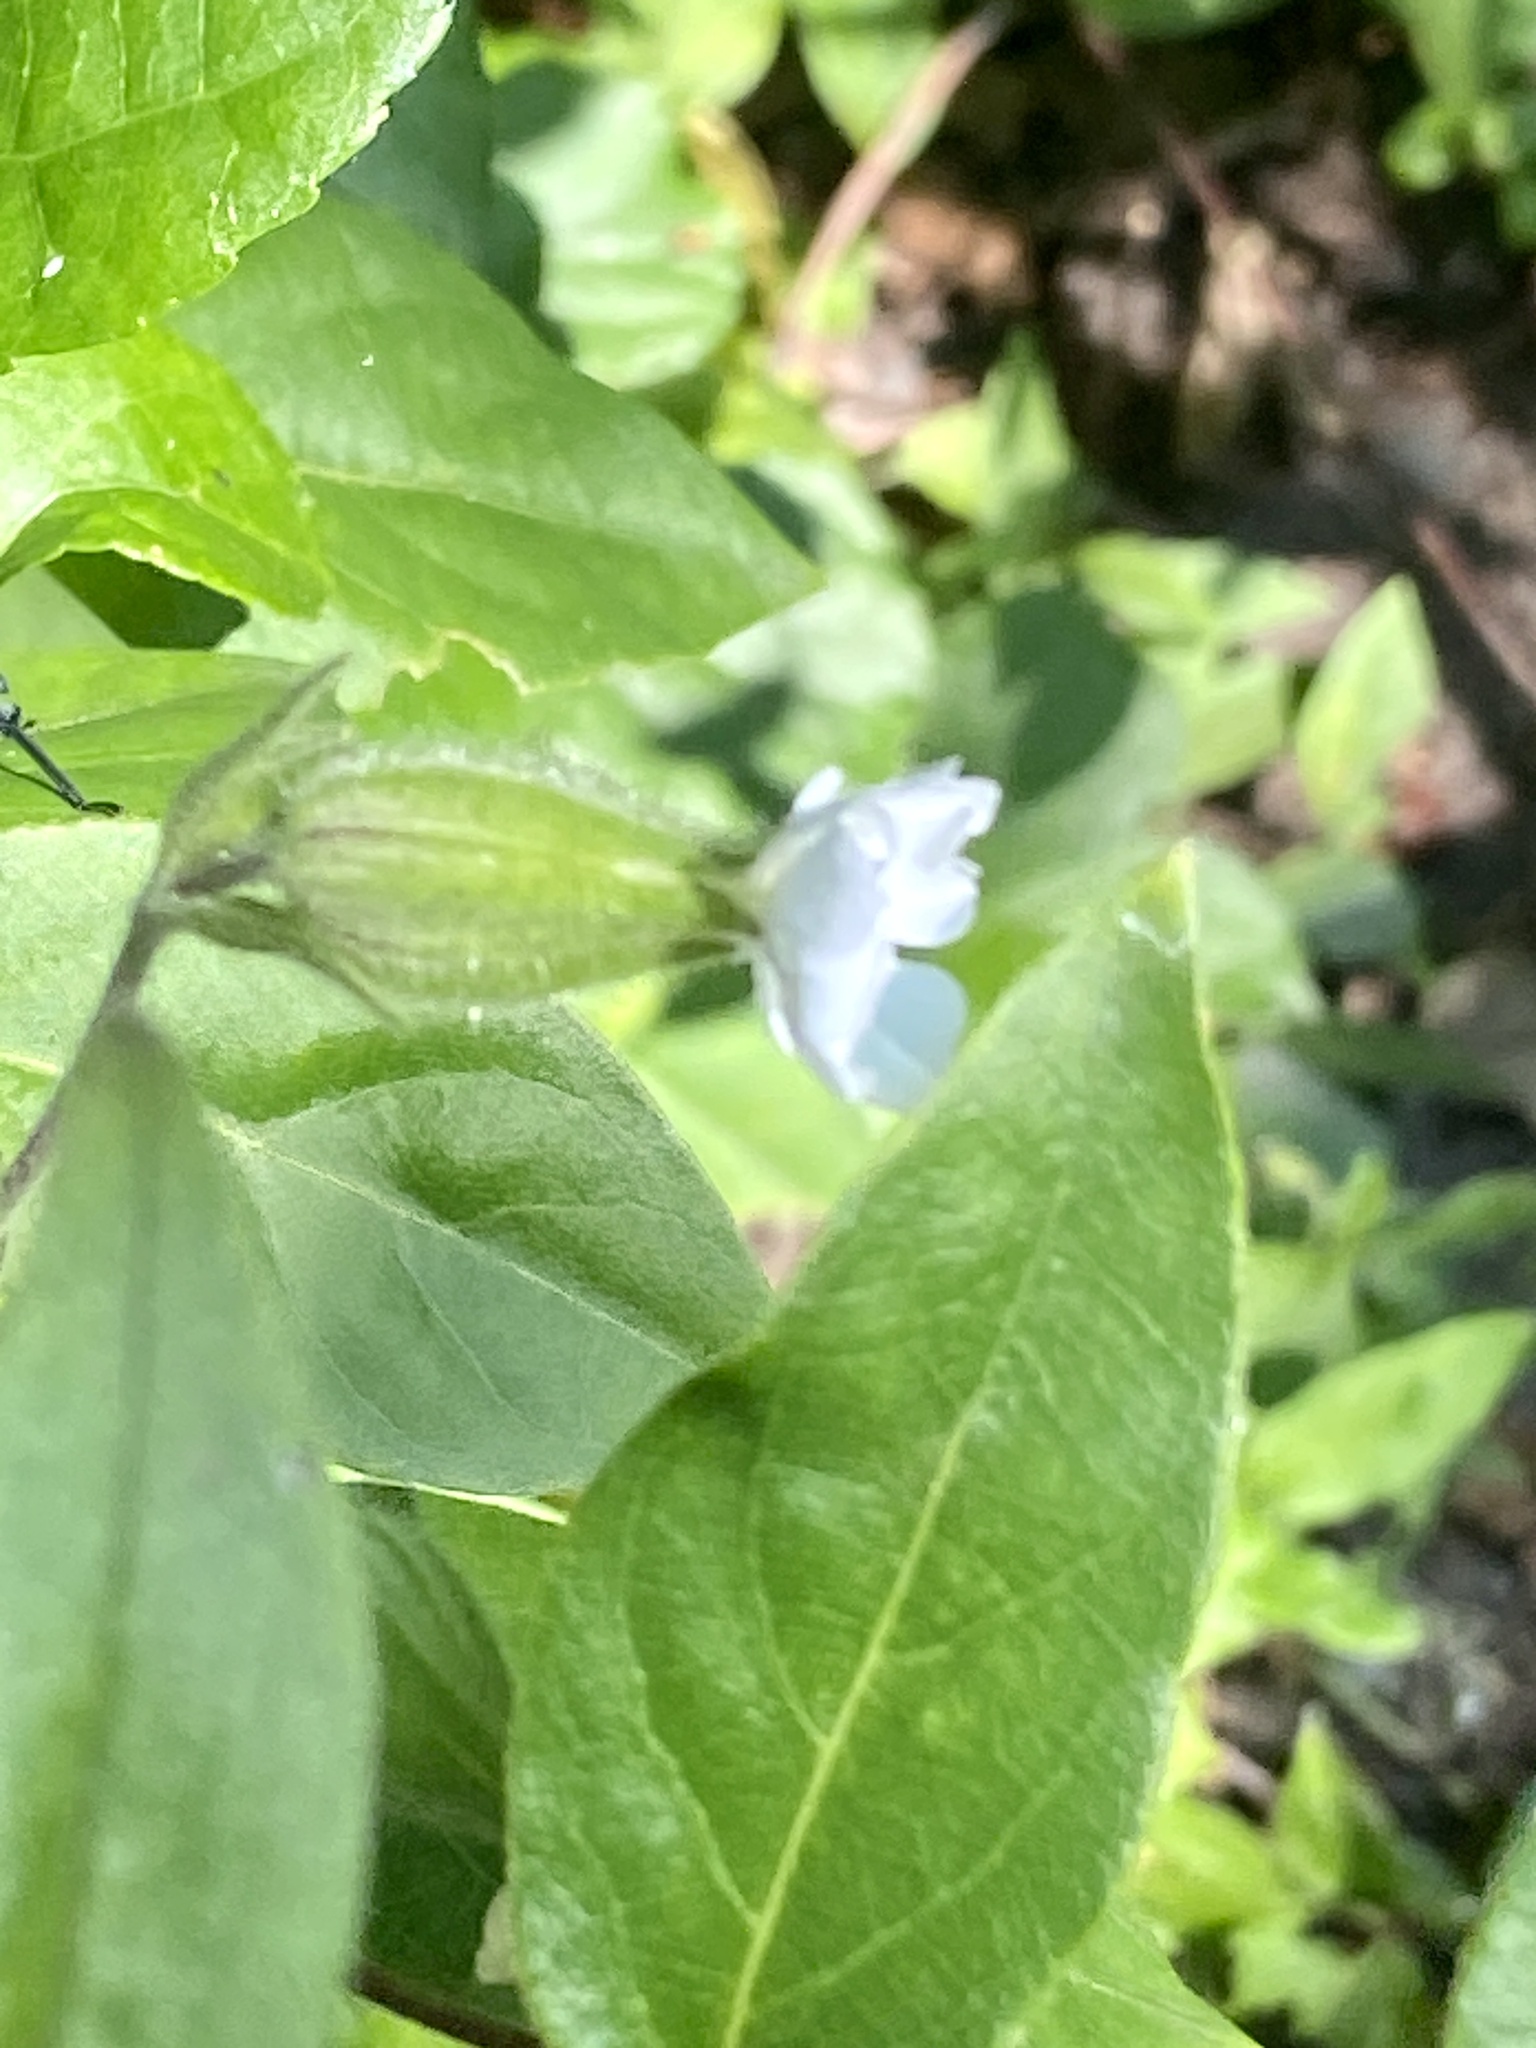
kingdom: Plantae
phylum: Tracheophyta
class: Magnoliopsida
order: Caryophyllales
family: Caryophyllaceae
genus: Silene
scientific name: Silene latifolia
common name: White campion
